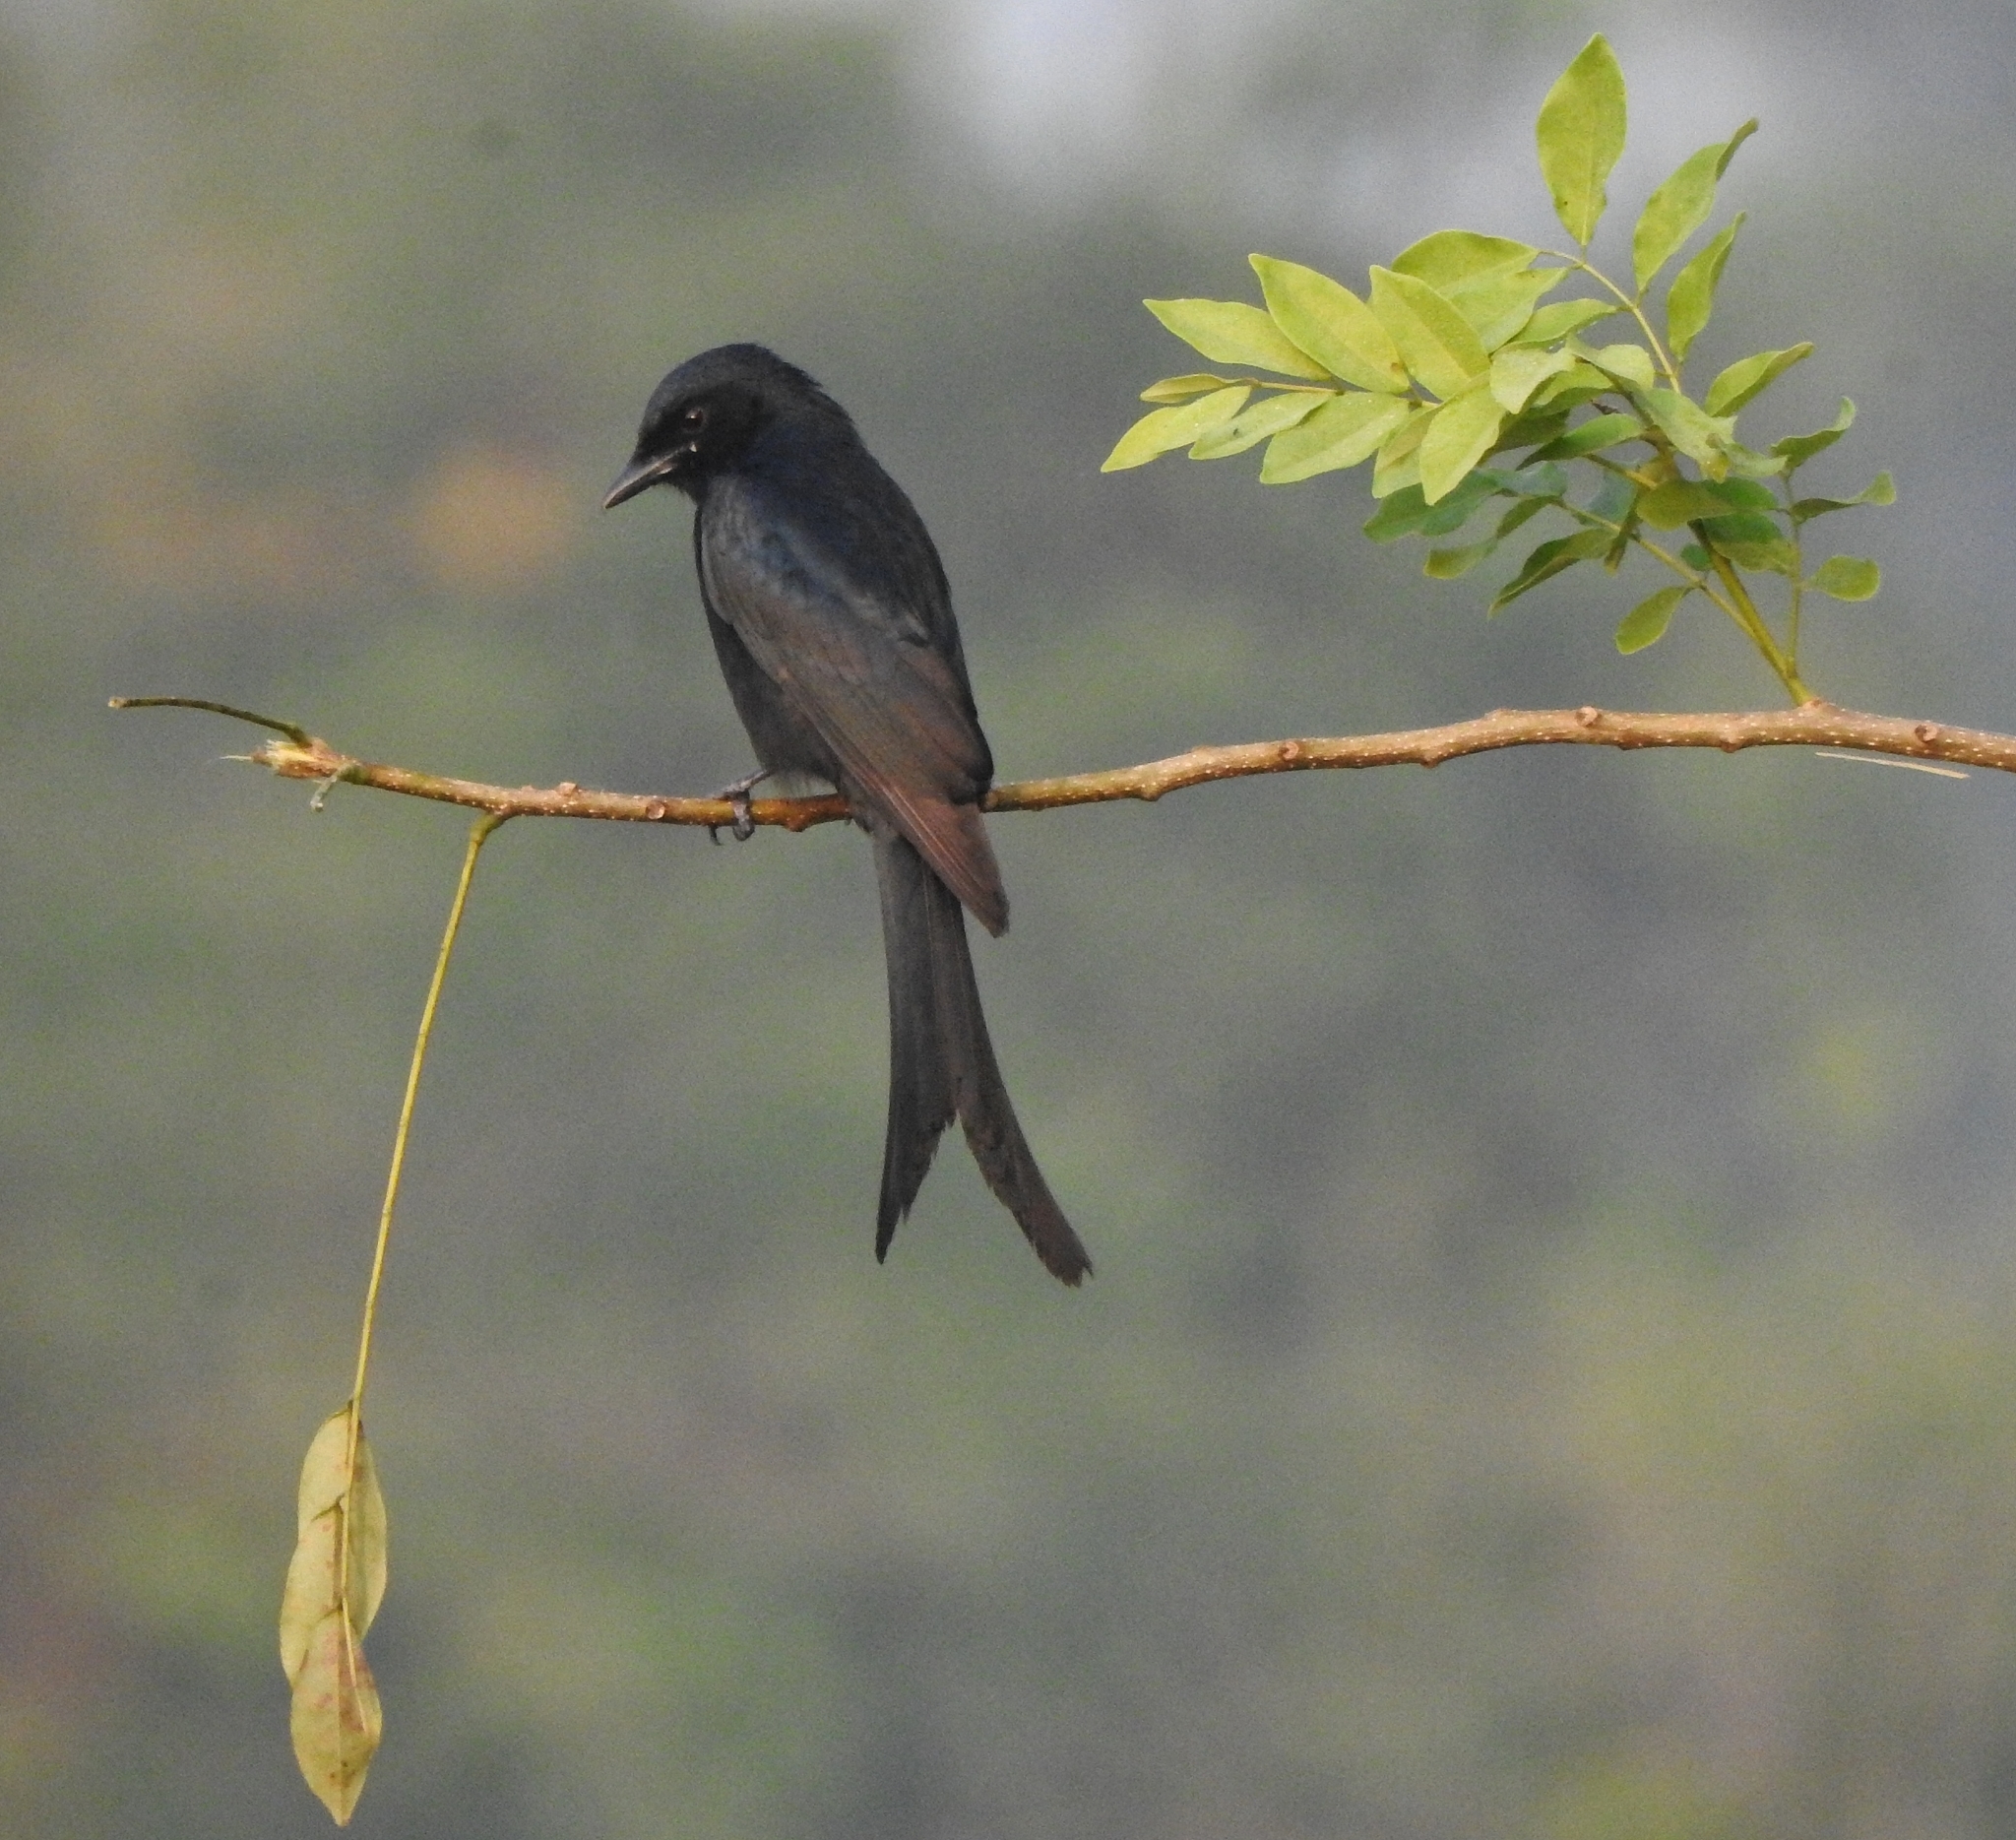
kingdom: Animalia
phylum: Chordata
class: Aves
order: Passeriformes
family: Dicruridae
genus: Dicrurus
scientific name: Dicrurus macrocercus
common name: Black drongo
